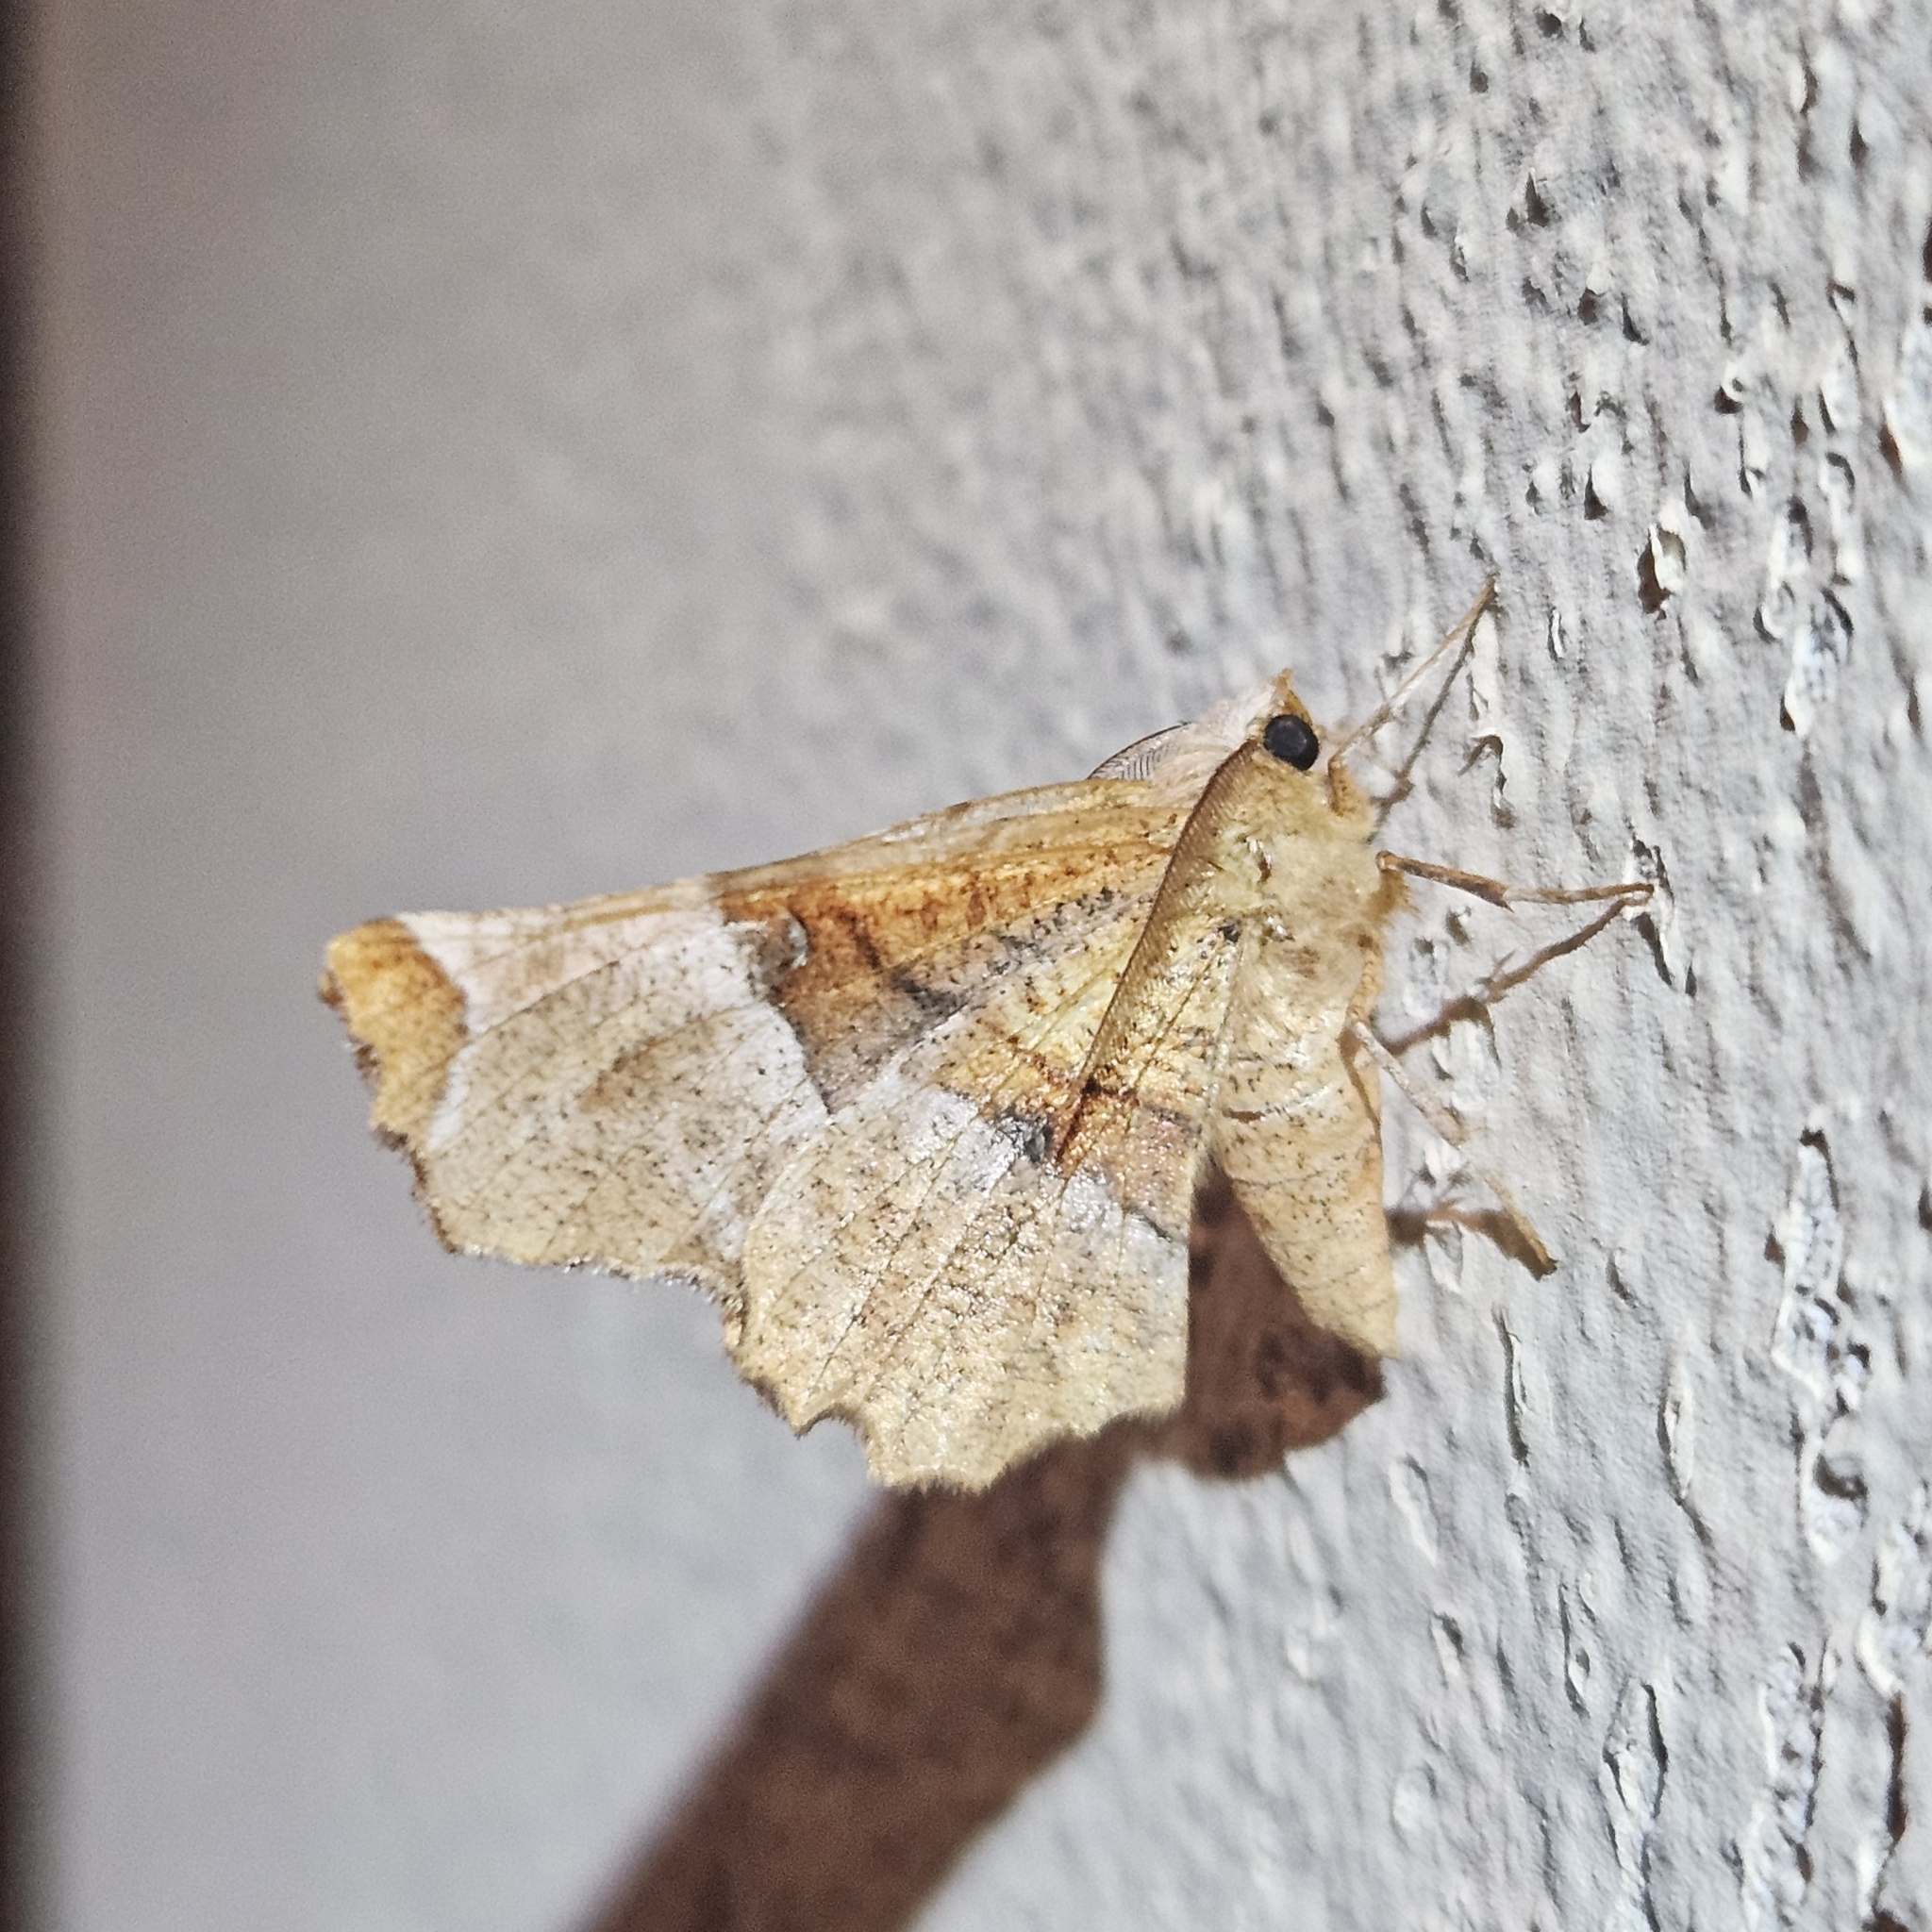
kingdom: Animalia
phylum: Arthropoda
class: Insecta
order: Lepidoptera
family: Geometridae
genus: Selenia
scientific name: Selenia lunularia
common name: Lunar thorn
